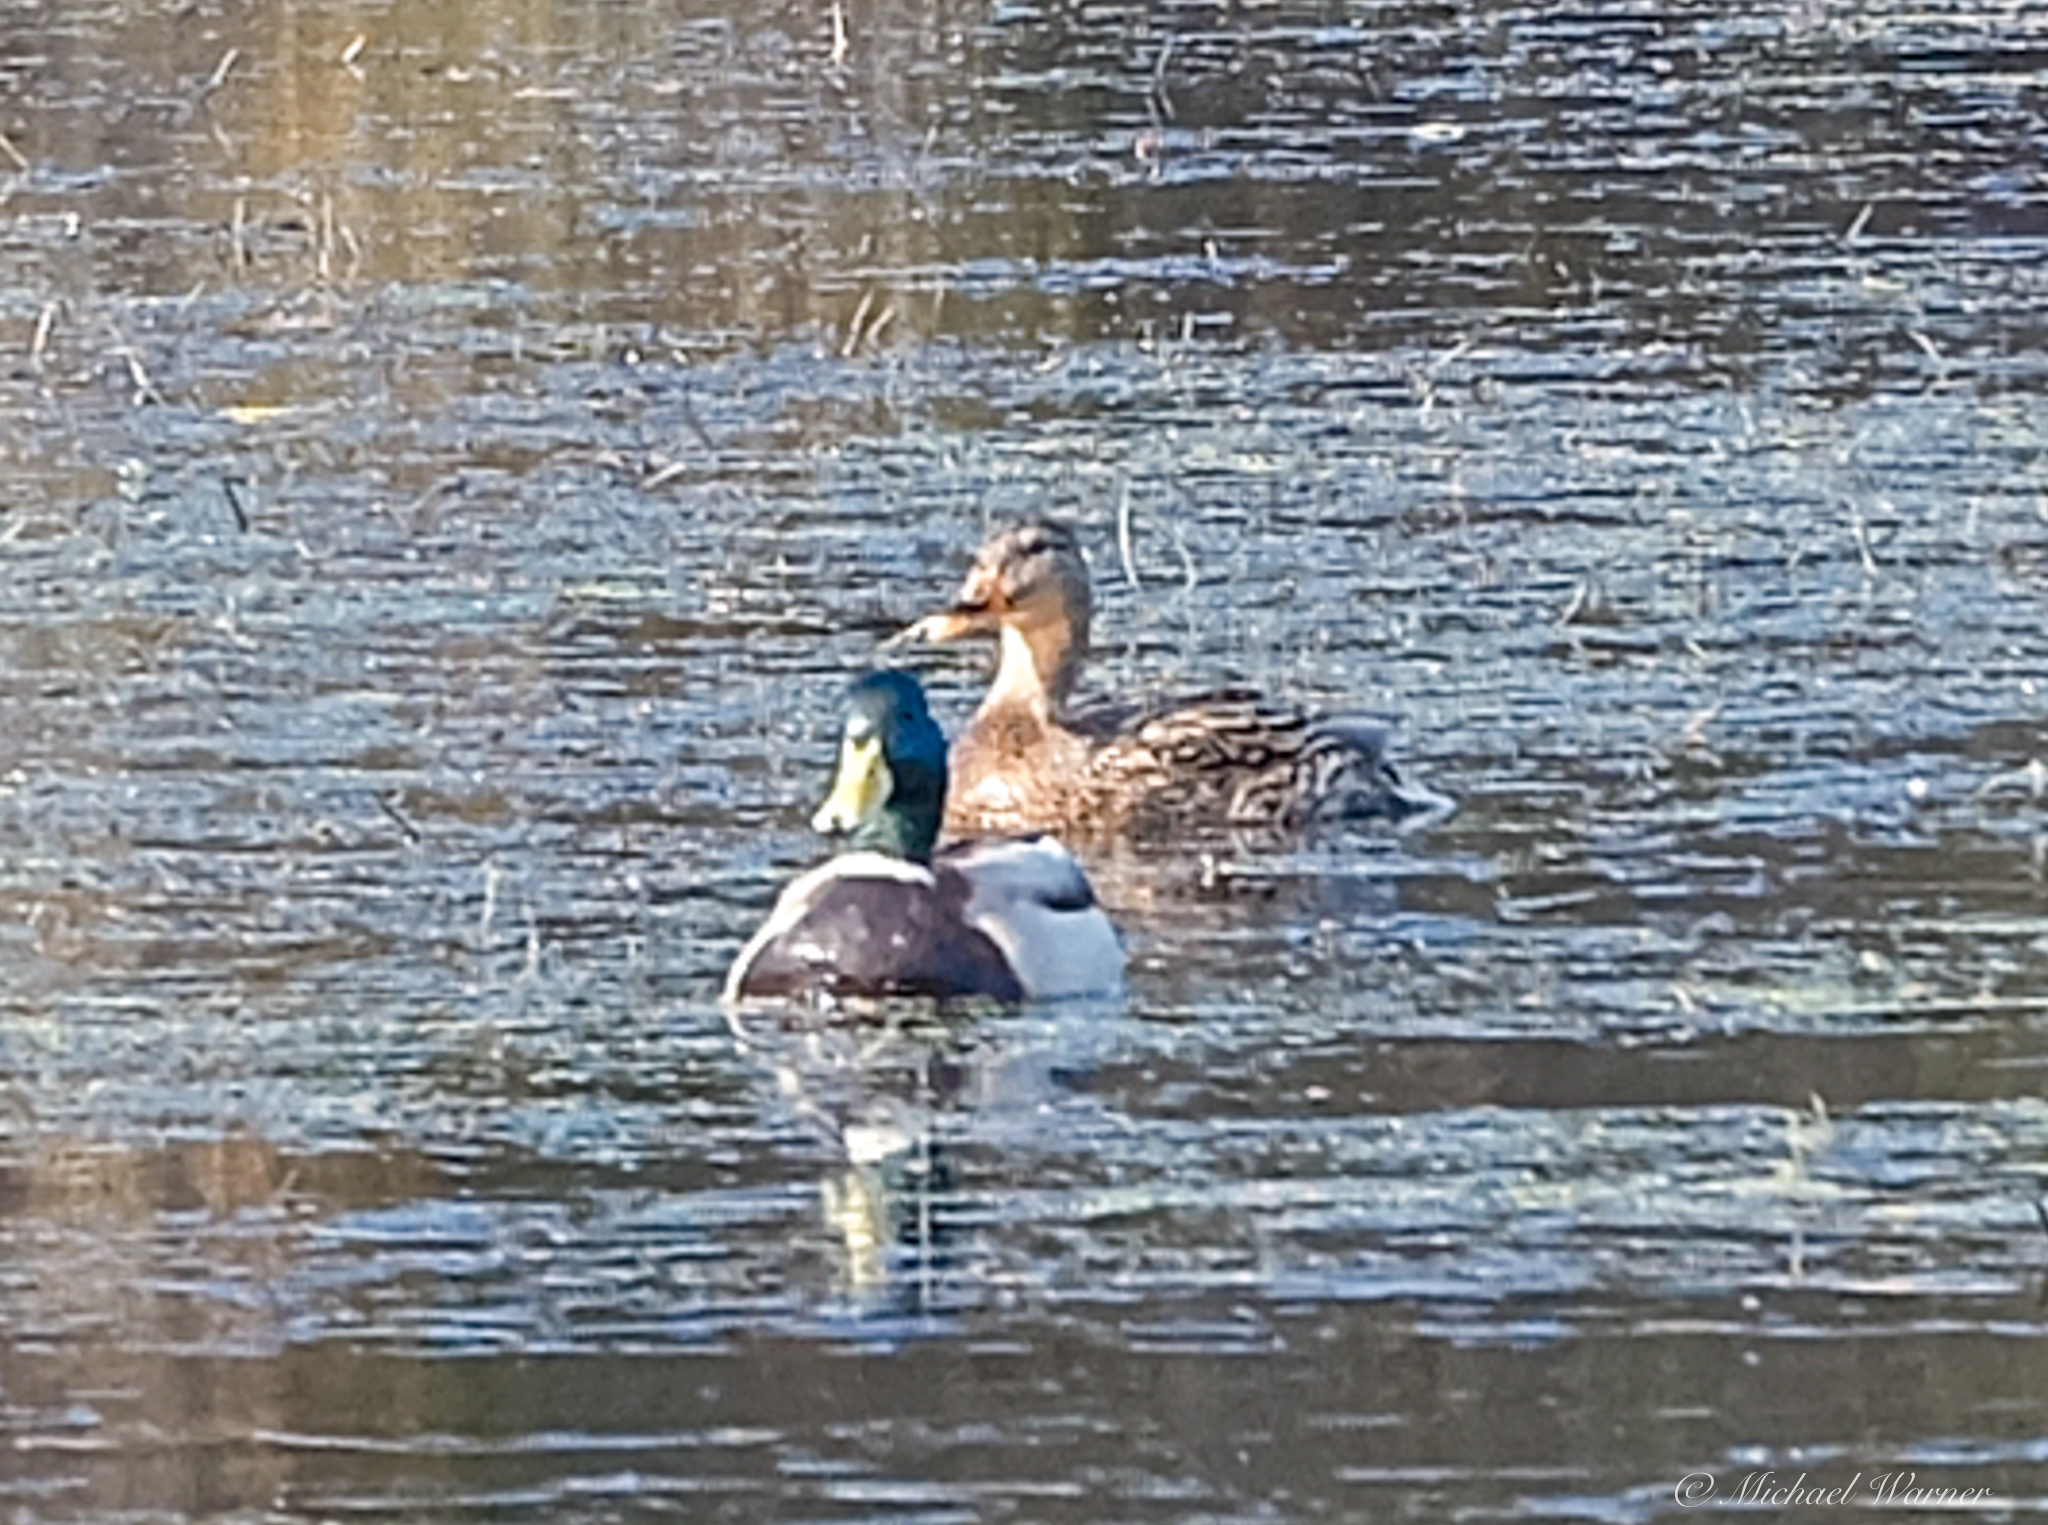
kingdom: Animalia
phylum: Chordata
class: Aves
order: Anseriformes
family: Anatidae
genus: Anas
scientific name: Anas platyrhynchos
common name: Mallard
